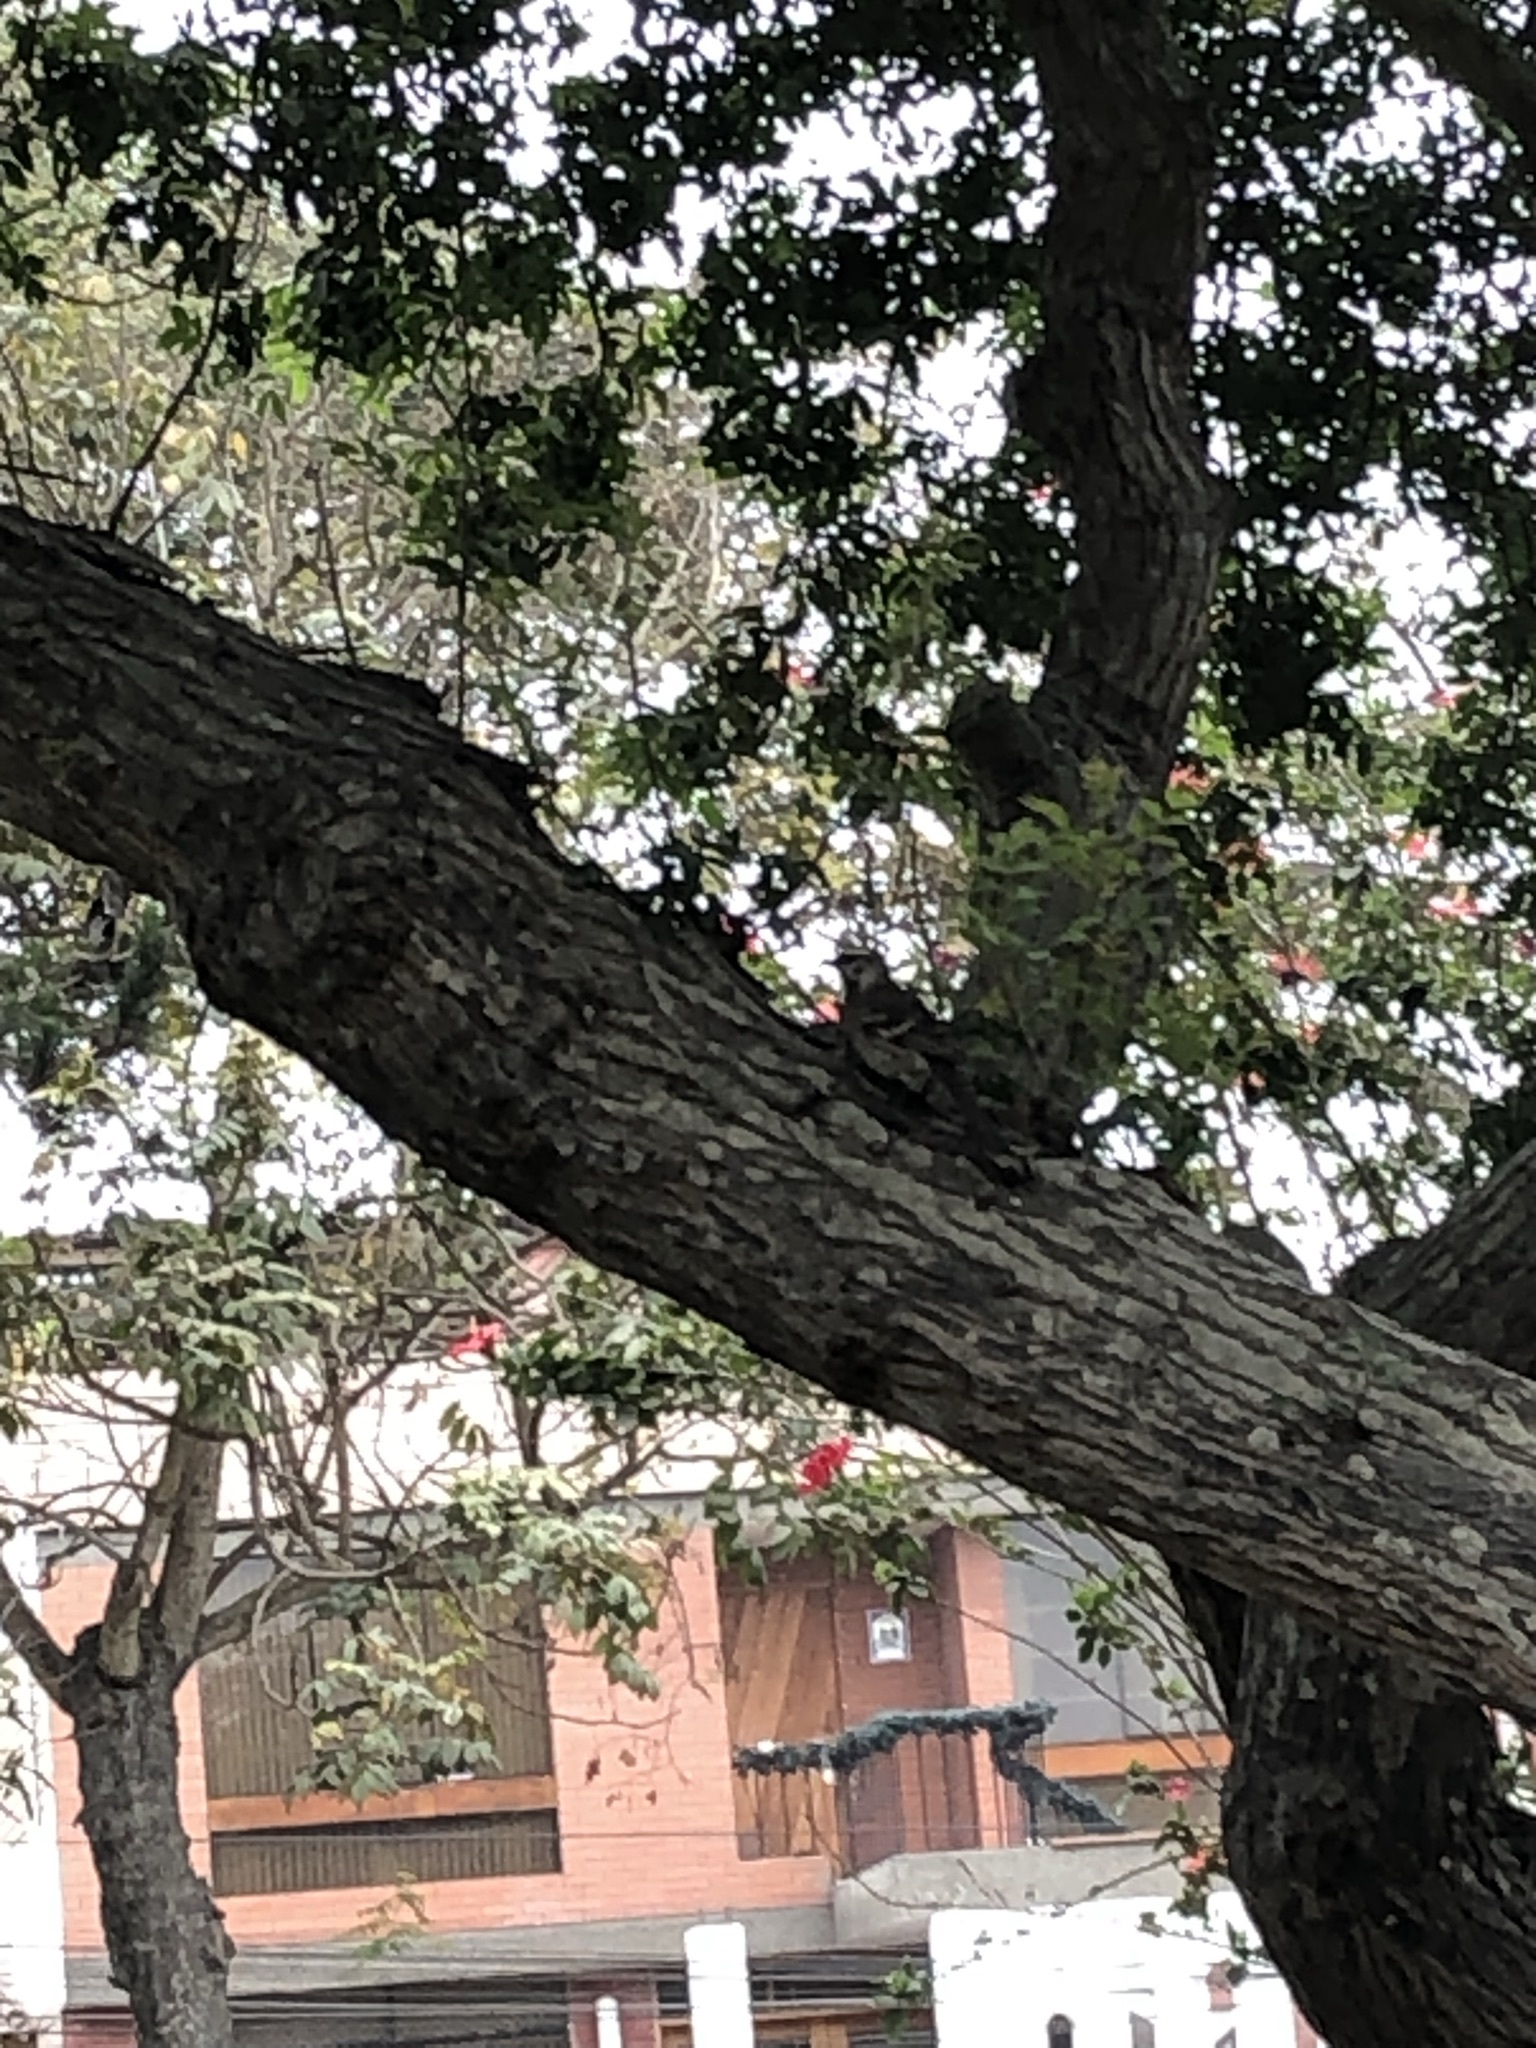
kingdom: Animalia
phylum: Chordata
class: Aves
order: Passeriformes
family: Mimidae
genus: Mimus
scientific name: Mimus longicaudatus
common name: Long-tailed mockingbird
